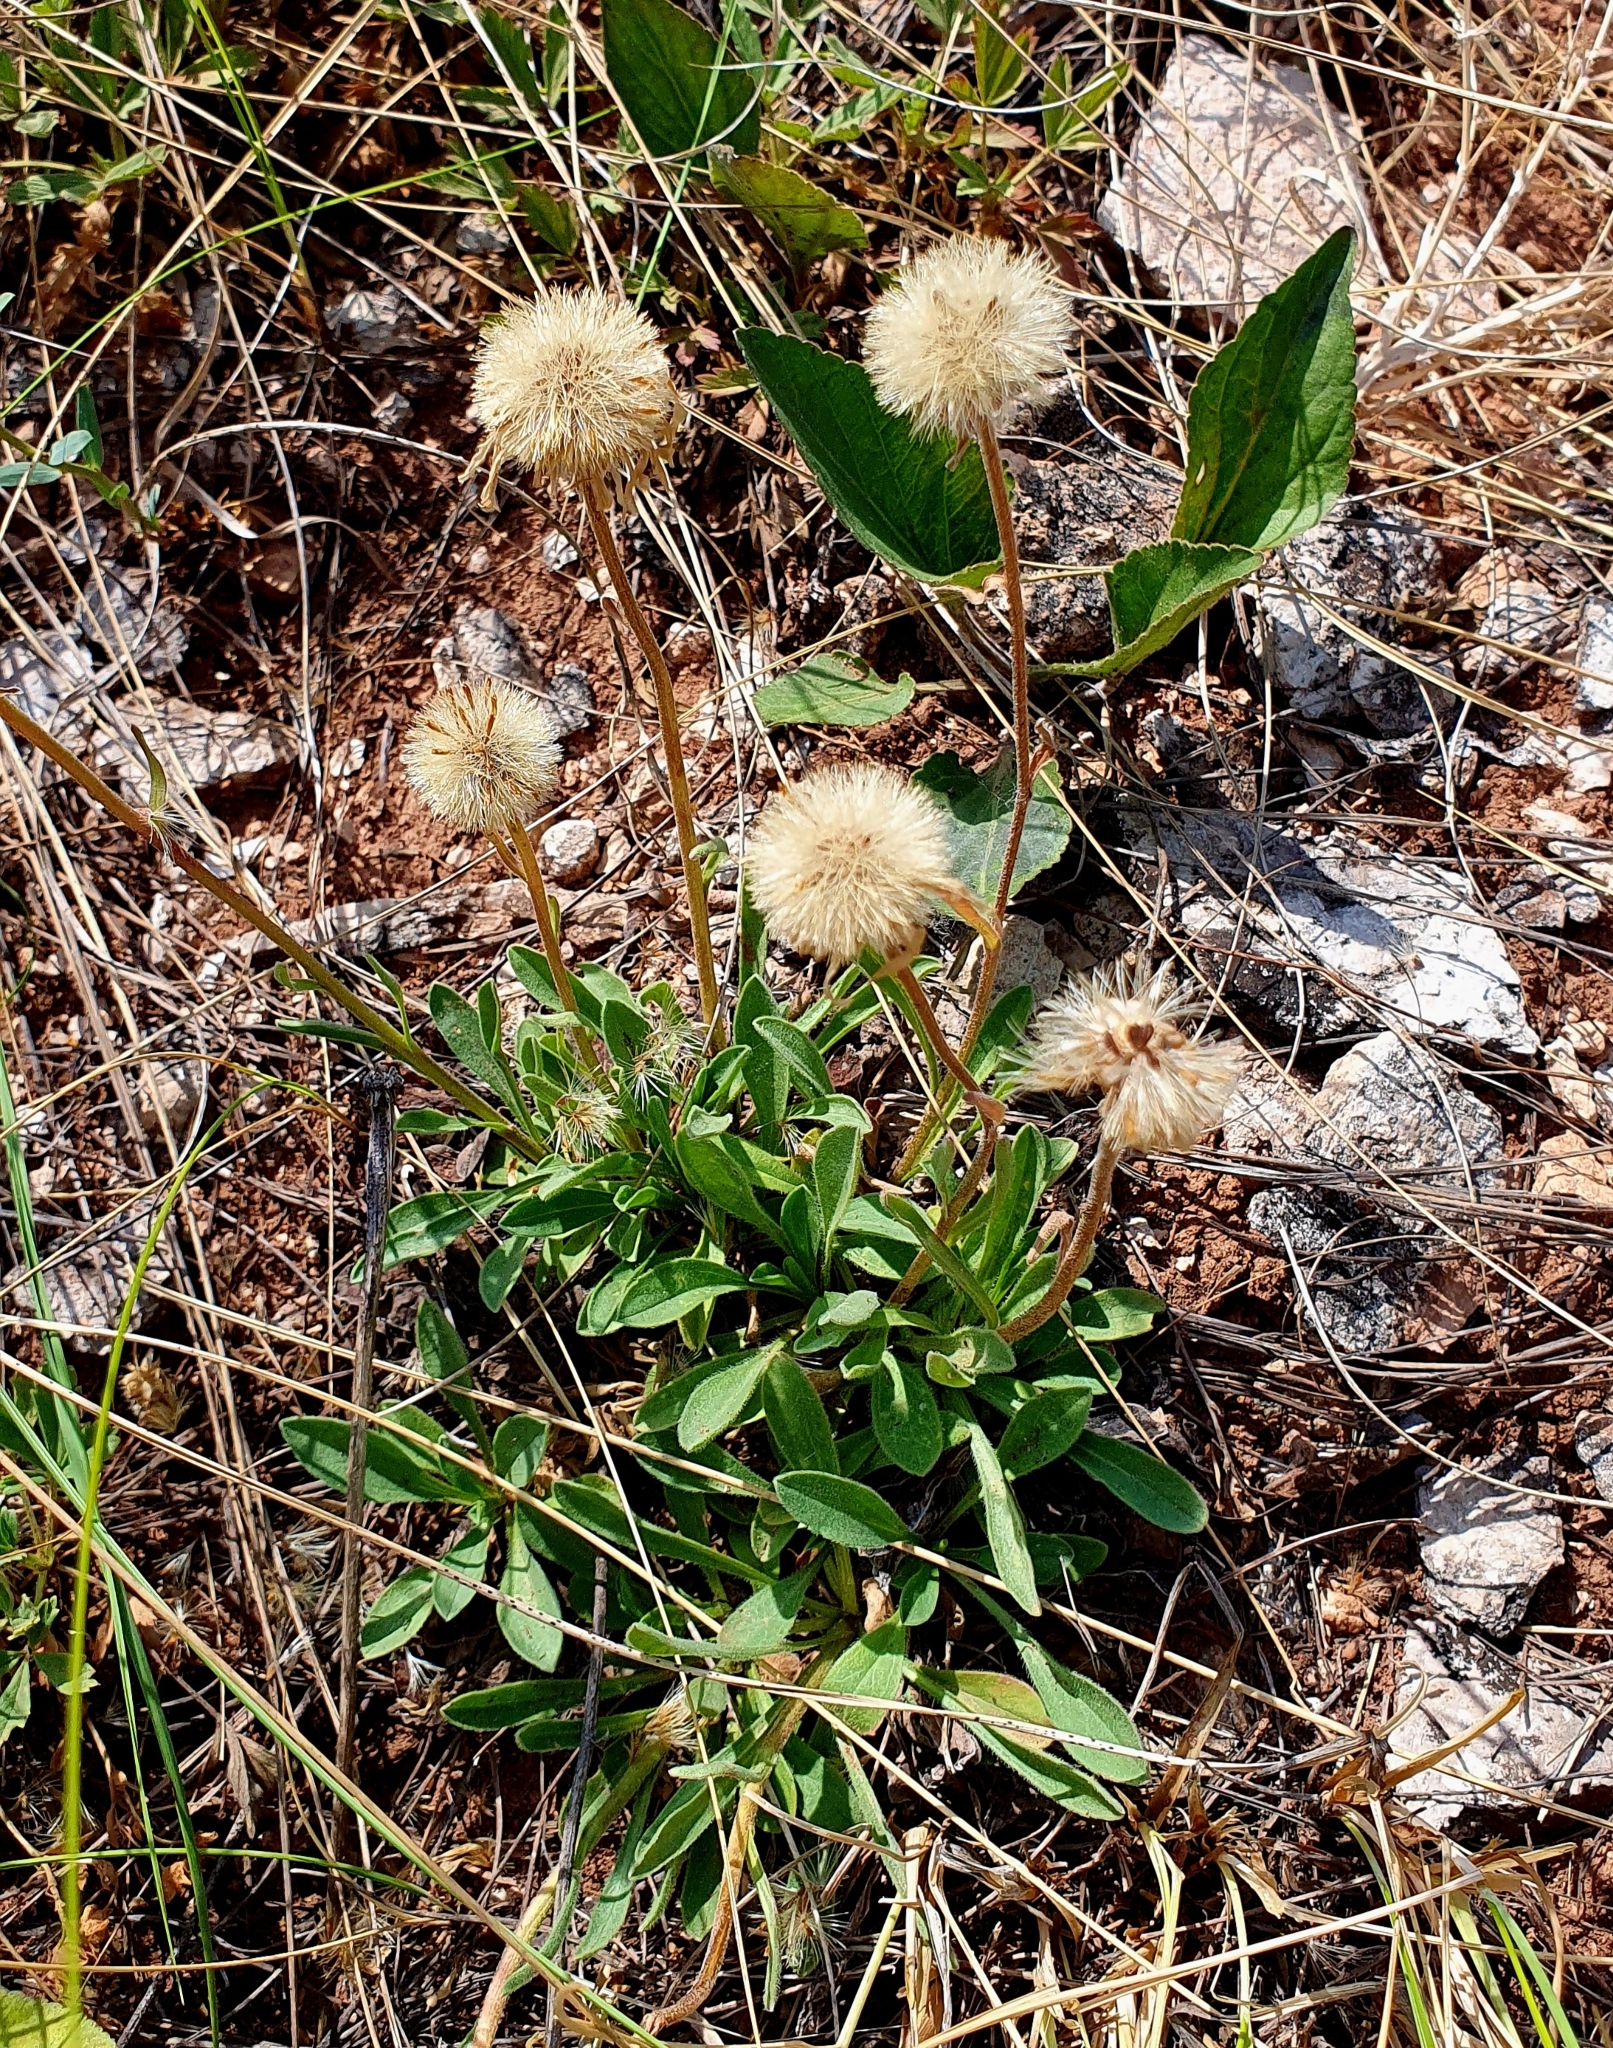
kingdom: Plantae
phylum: Tracheophyta
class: Magnoliopsida
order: Asterales
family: Asteraceae
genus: Aster
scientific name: Aster alpinus
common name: Alpine aster
